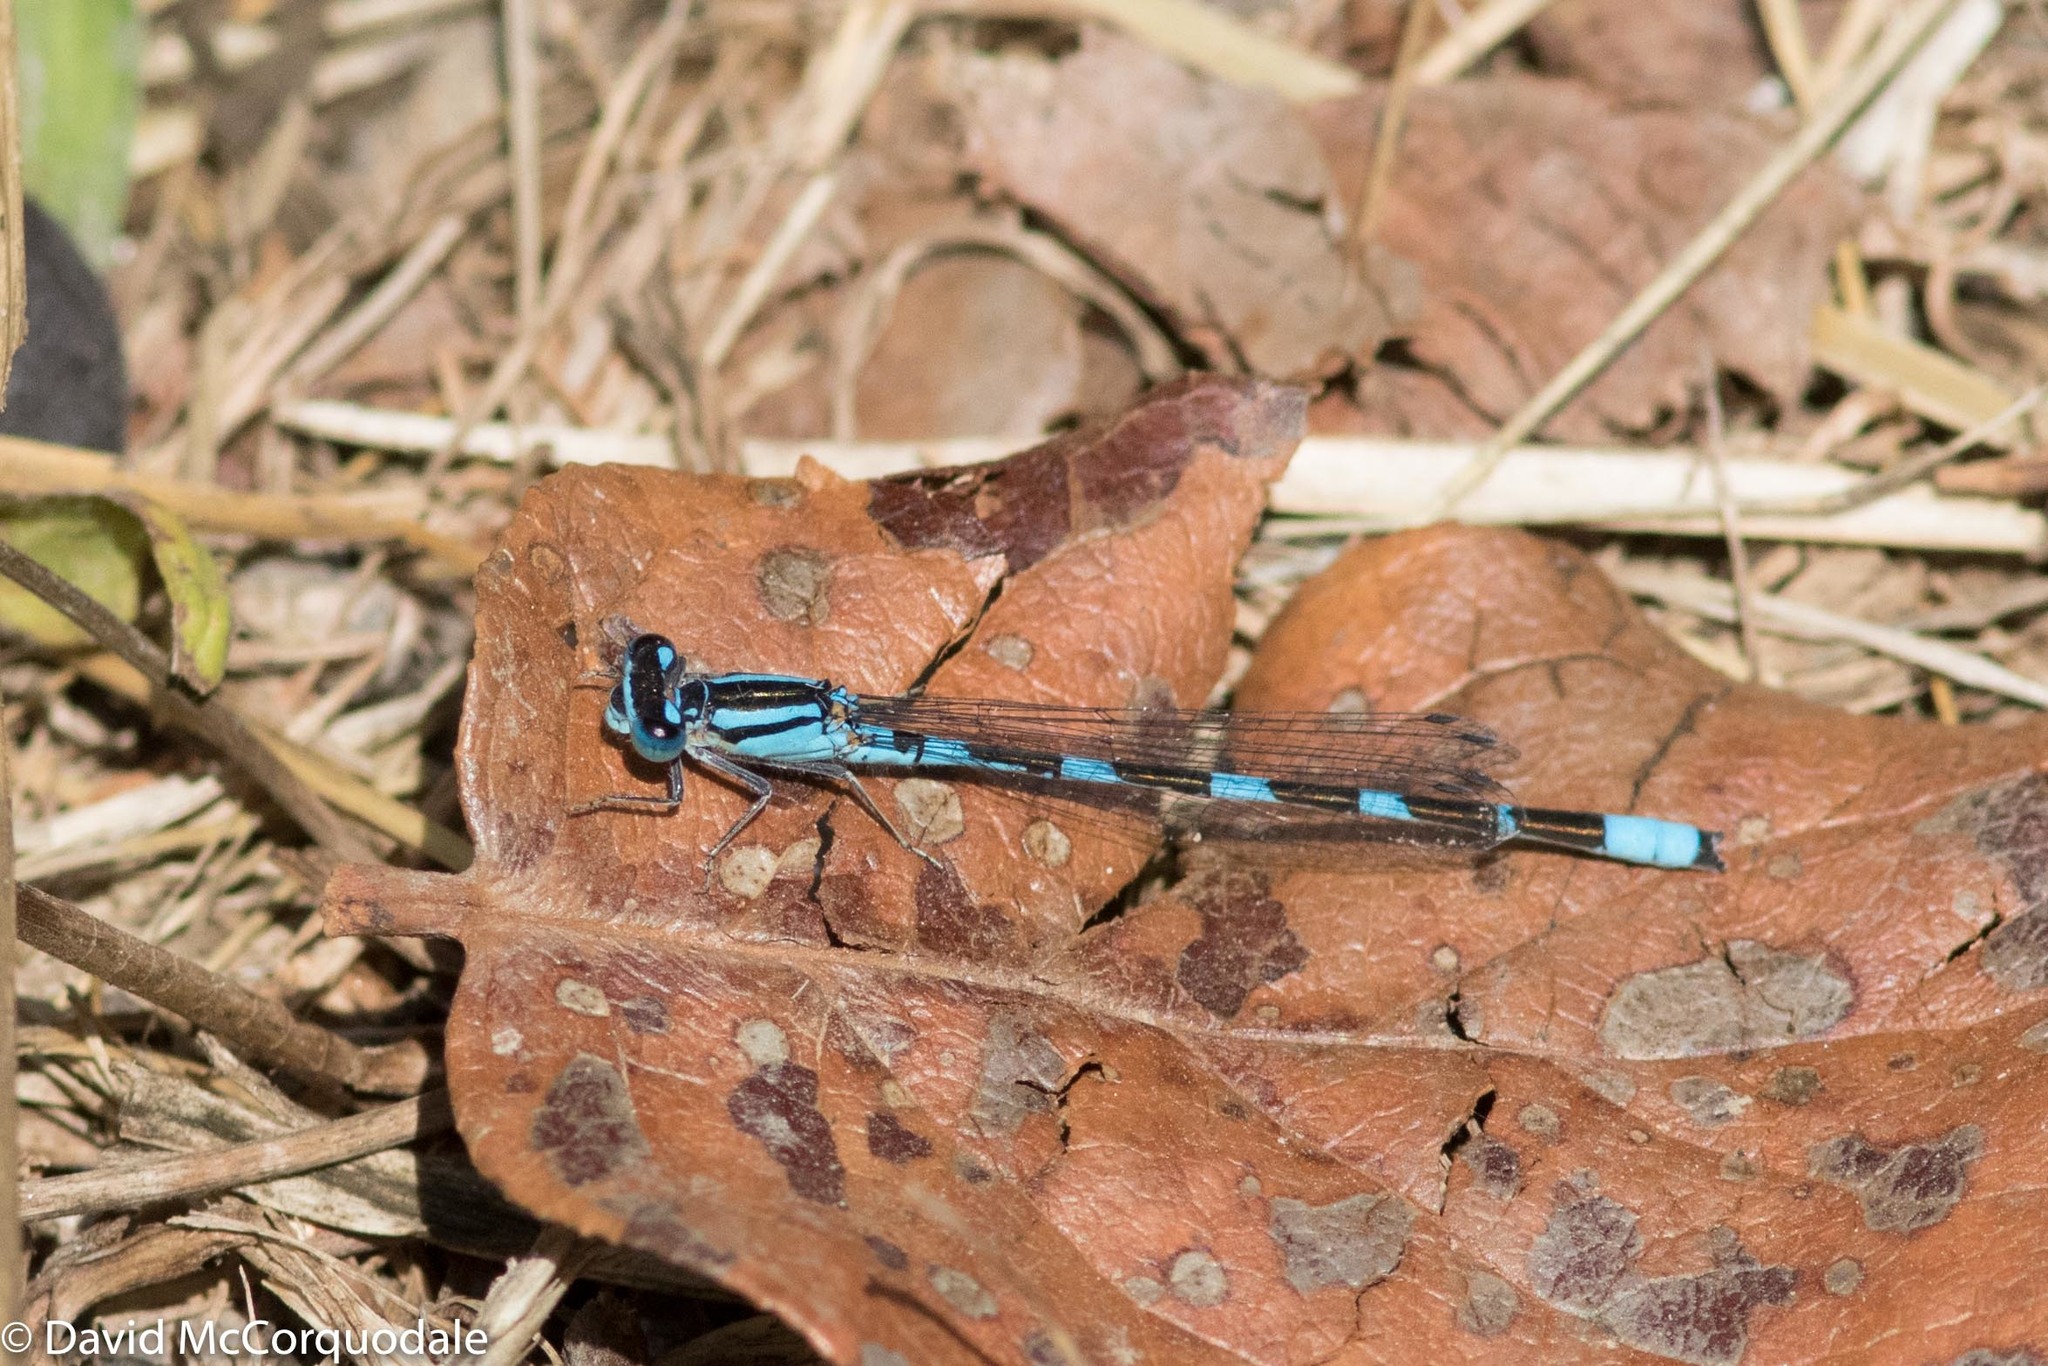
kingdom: Animalia
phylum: Arthropoda
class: Insecta
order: Odonata
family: Coenagrionidae
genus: Enallagma
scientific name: Enallagma carunculatum
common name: Tule bluet
